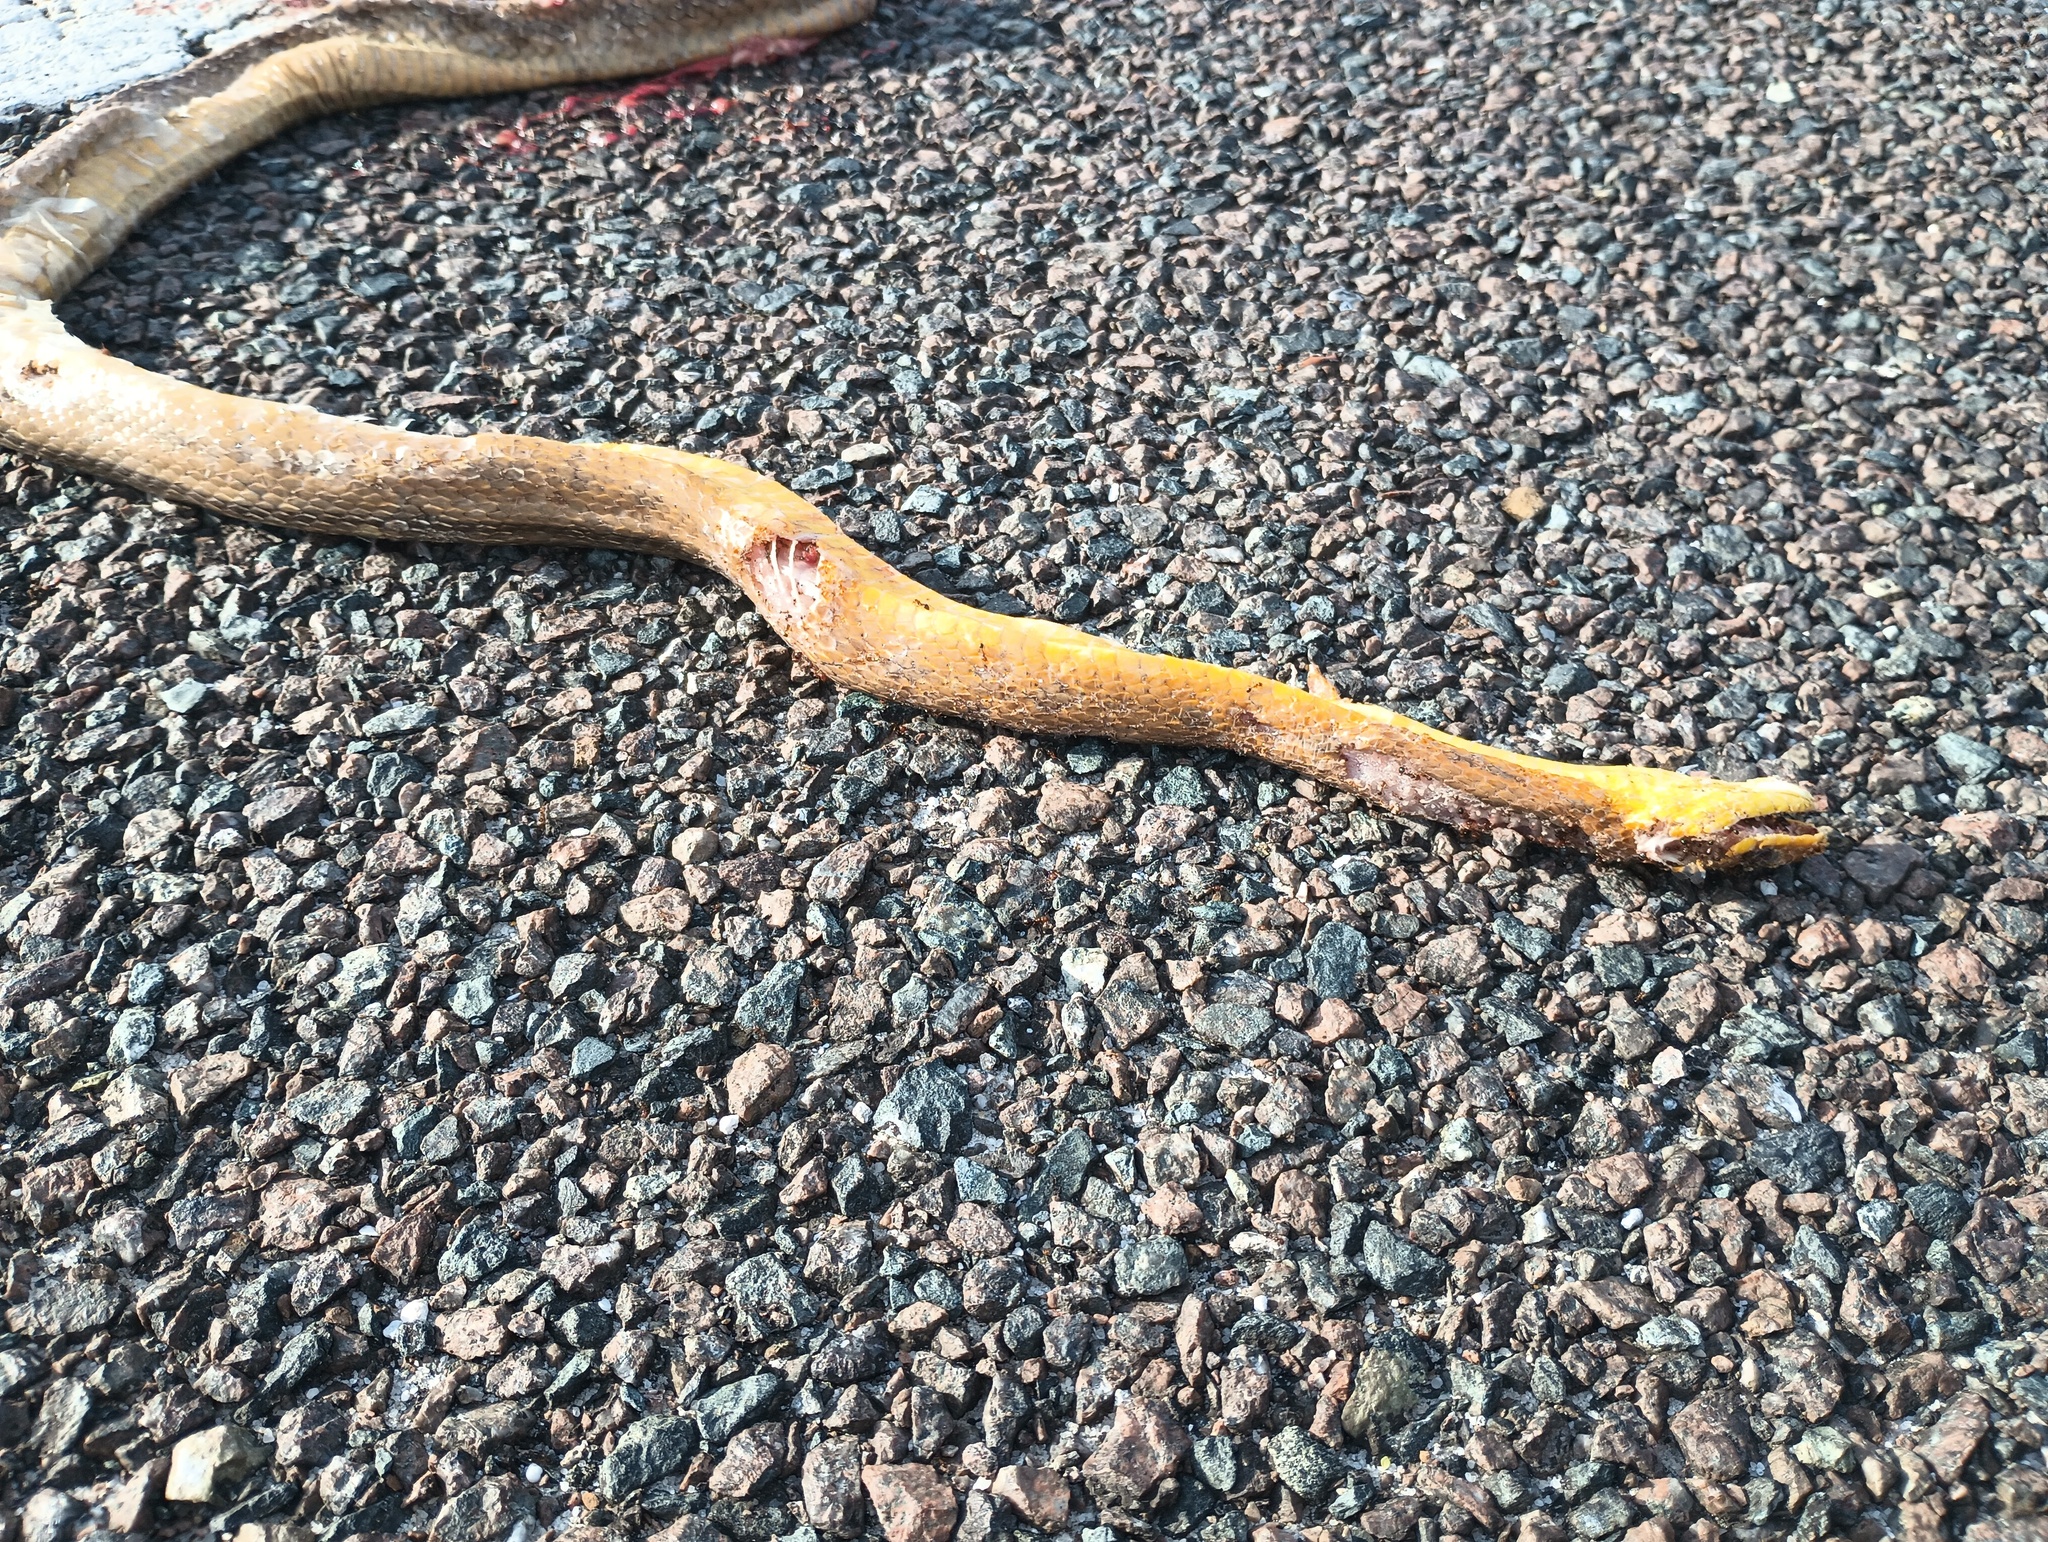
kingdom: Animalia
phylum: Chordata
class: Squamata
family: Colubridae
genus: Pantherophis
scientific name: Pantherophis alleghaniensis
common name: Eastern rat snake
